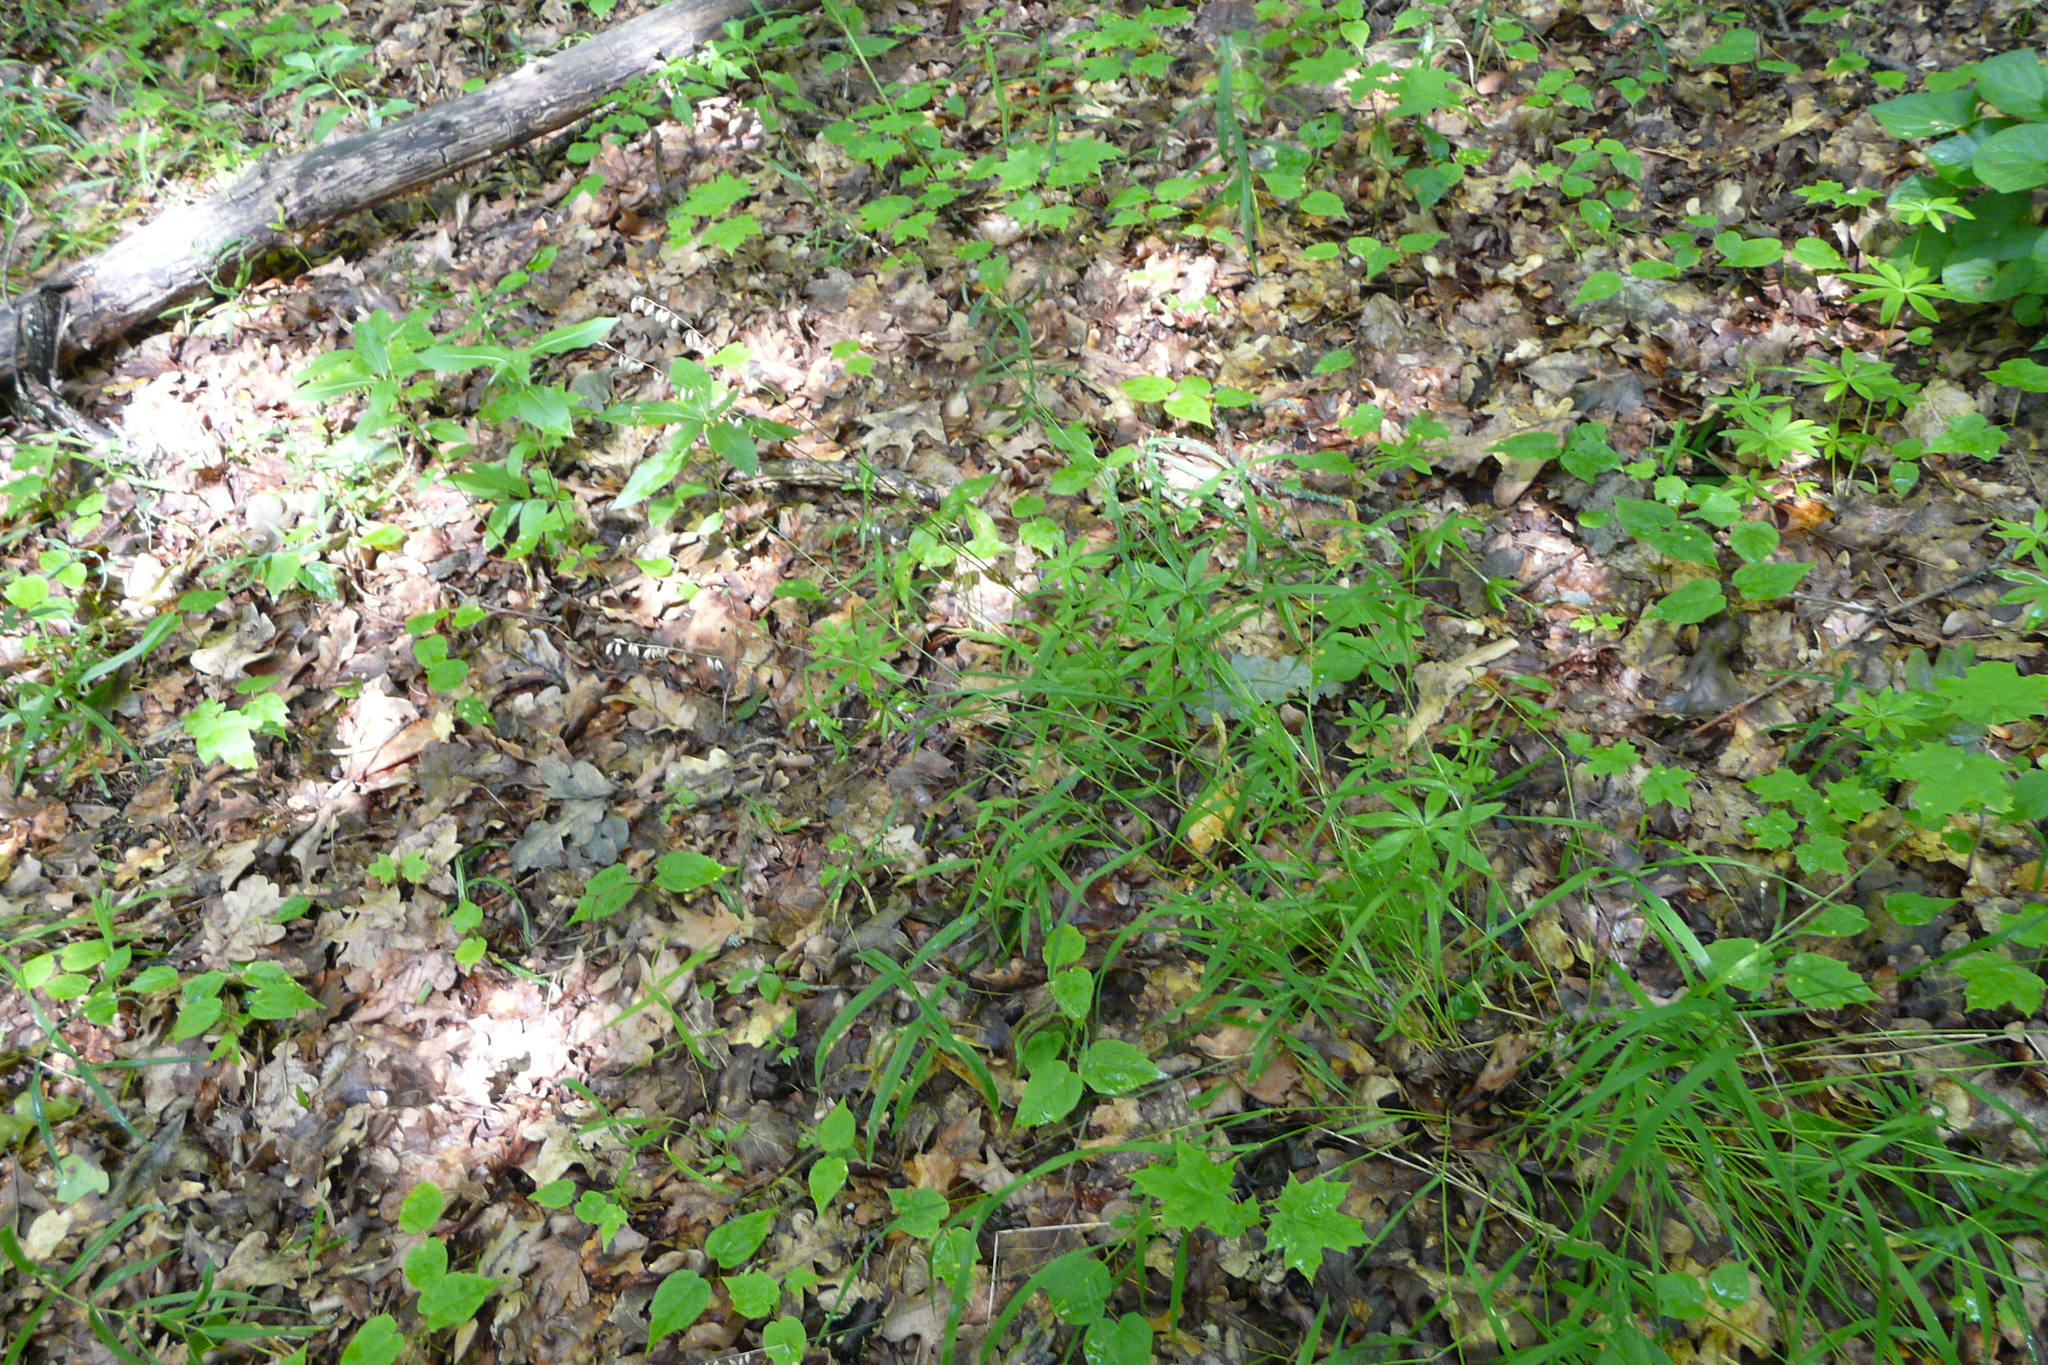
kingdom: Plantae
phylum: Tracheophyta
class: Liliopsida
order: Poales
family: Poaceae
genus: Melica
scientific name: Melica nutans
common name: Mountain melick
